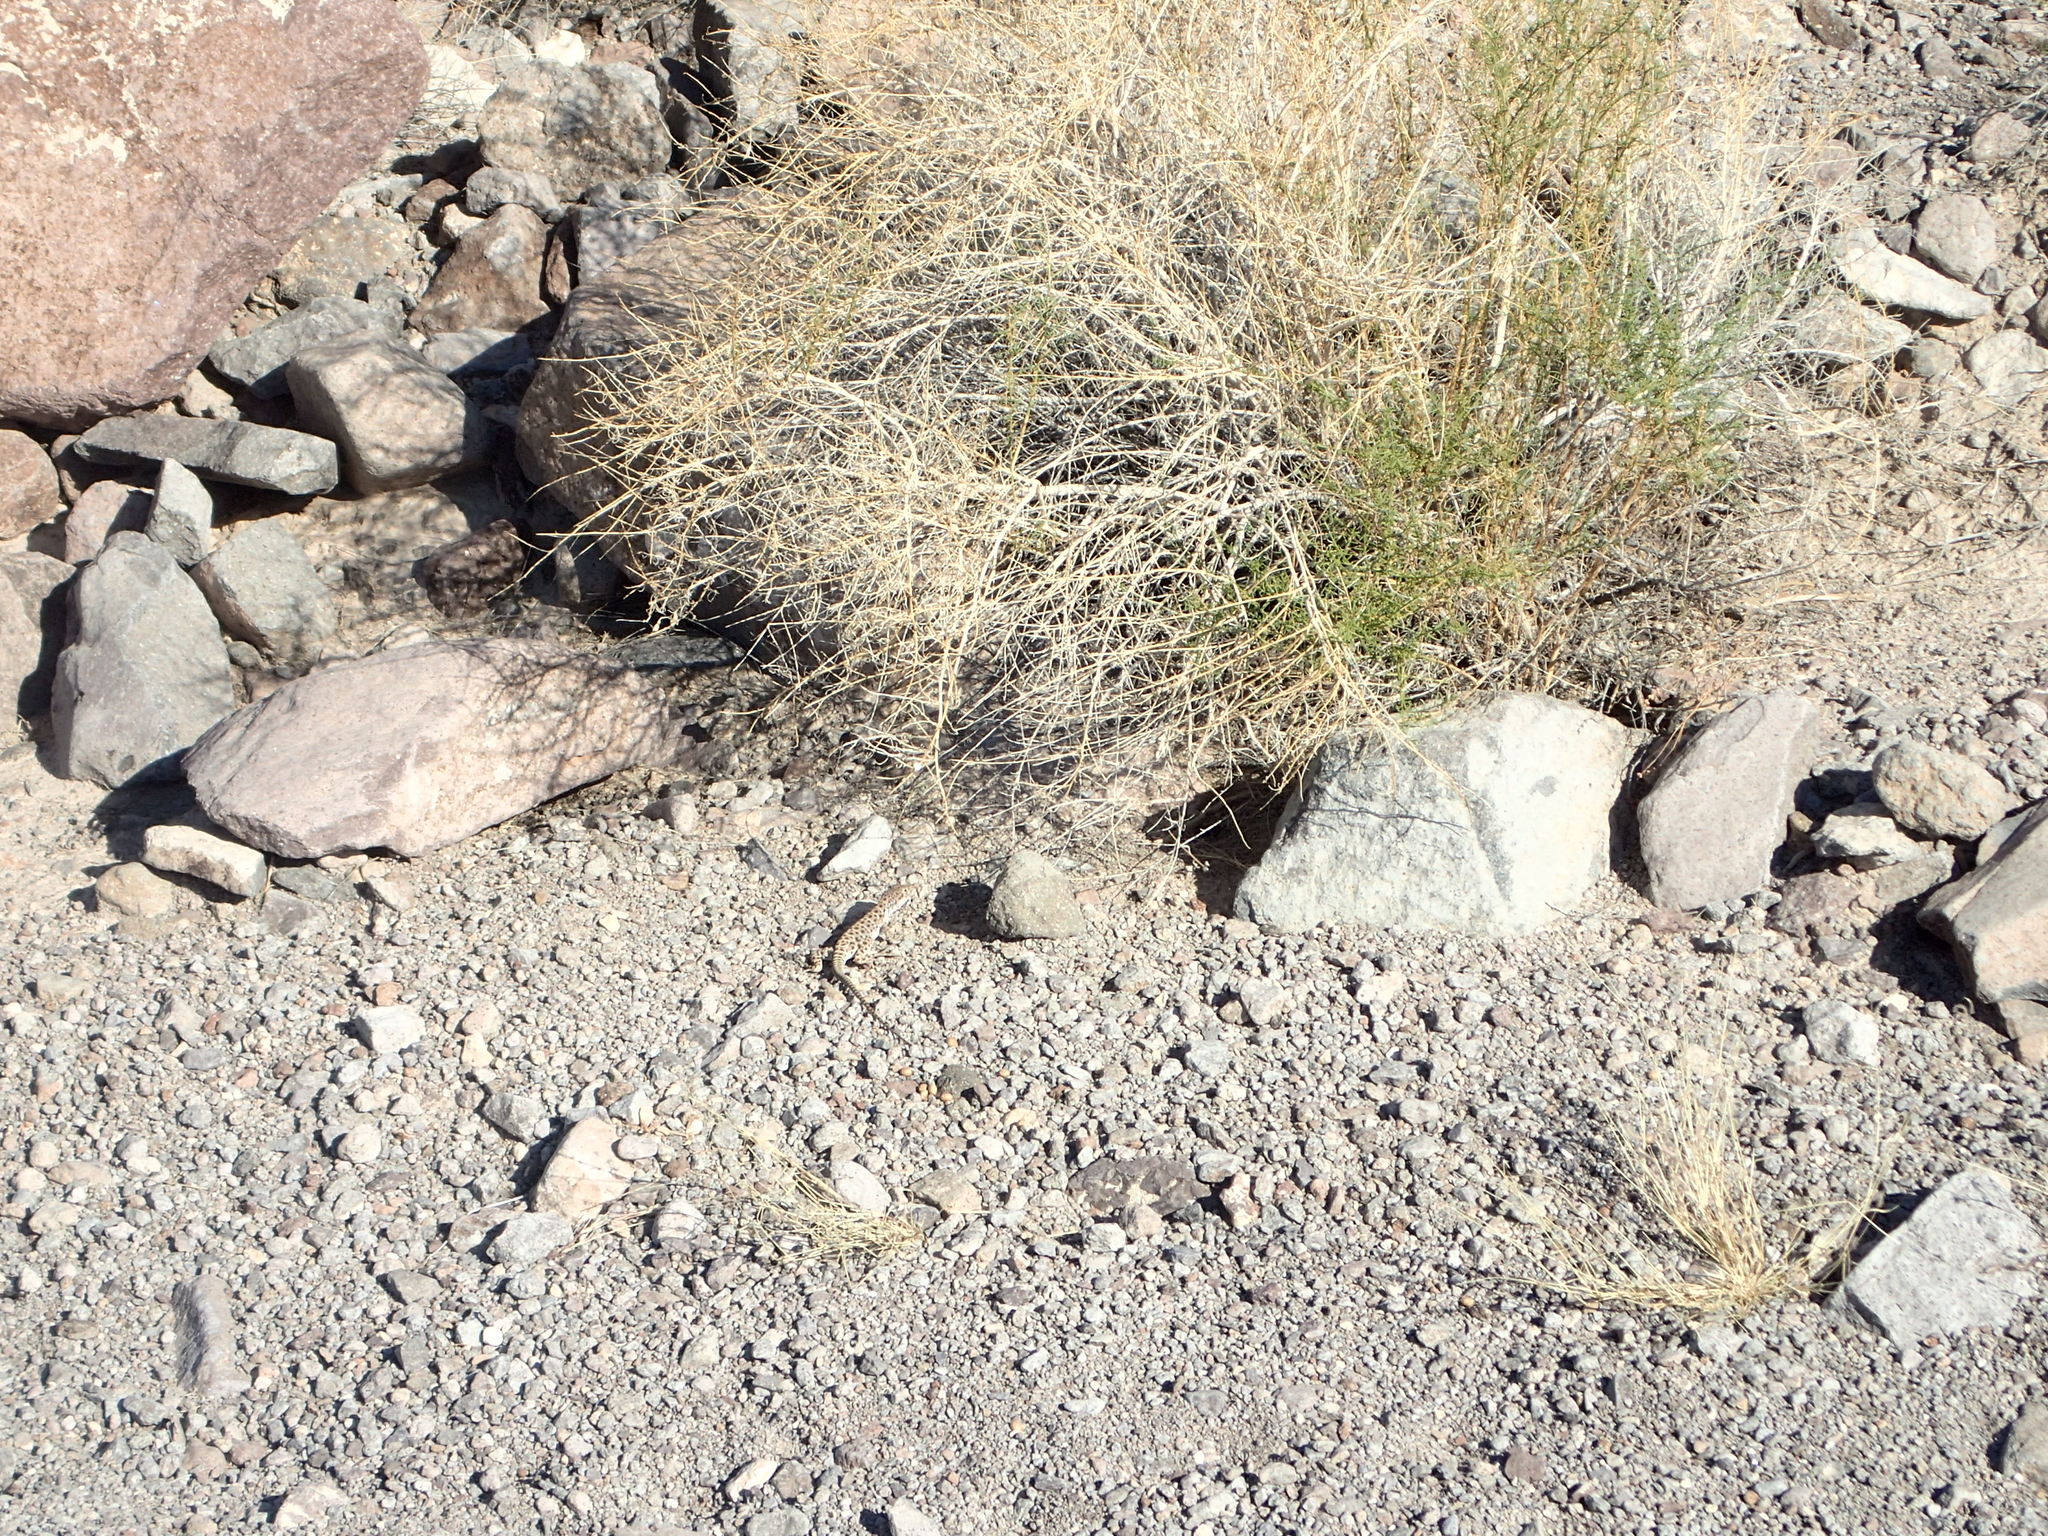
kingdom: Animalia
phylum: Chordata
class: Squamata
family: Crotaphytidae
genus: Gambelia
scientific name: Gambelia wislizenii
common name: Longnose leopard lizard
